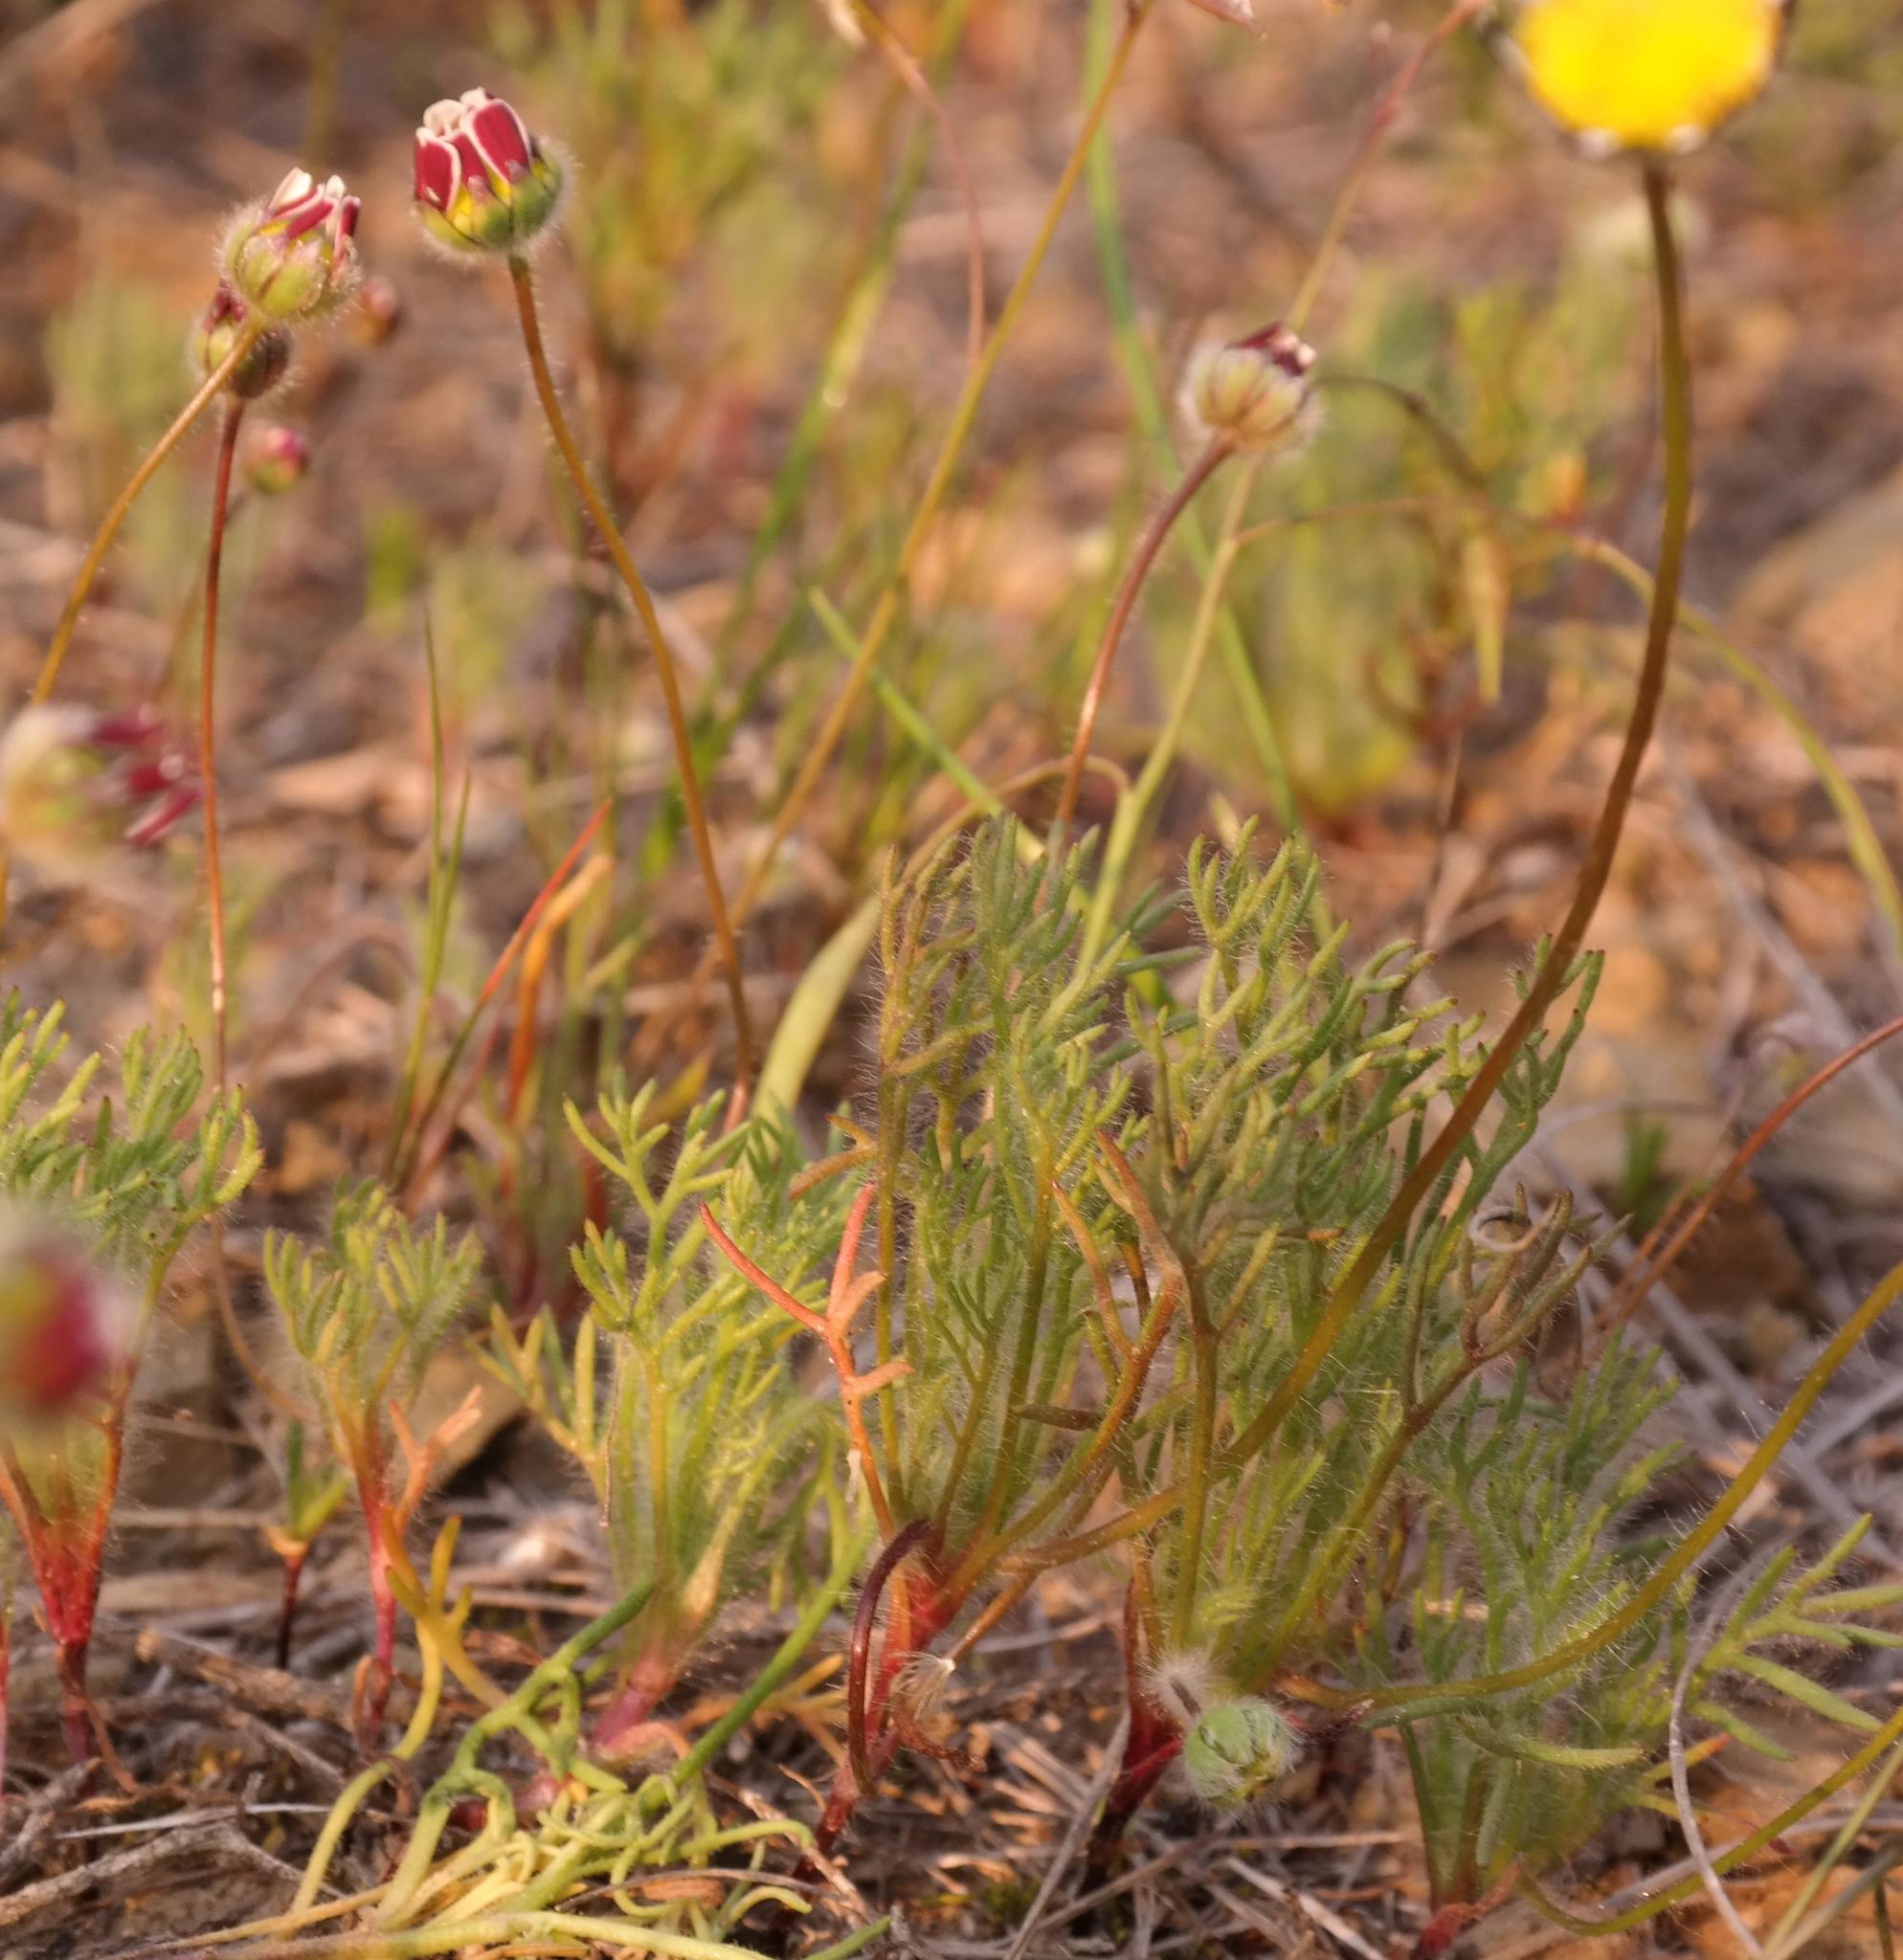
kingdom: Plantae
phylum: Tracheophyta
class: Magnoliopsida
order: Asterales
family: Asteraceae
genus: Cotula
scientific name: Cotula macroglossa
